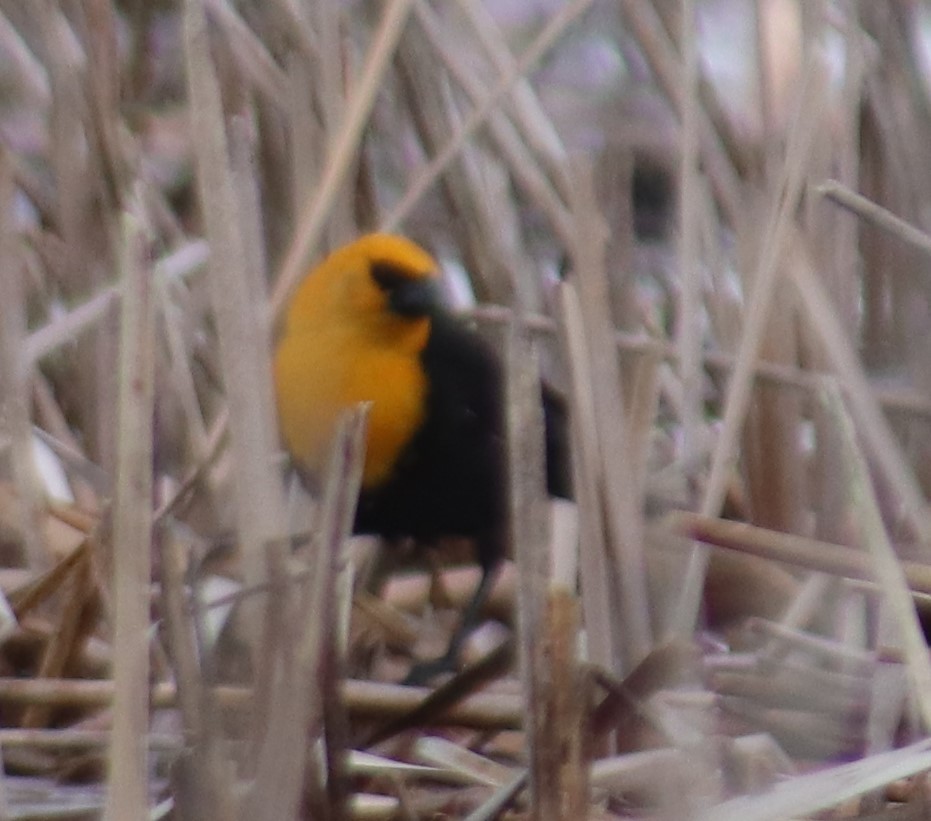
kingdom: Animalia
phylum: Chordata
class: Aves
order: Passeriformes
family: Icteridae
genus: Xanthocephalus
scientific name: Xanthocephalus xanthocephalus
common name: Yellow-headed blackbird
